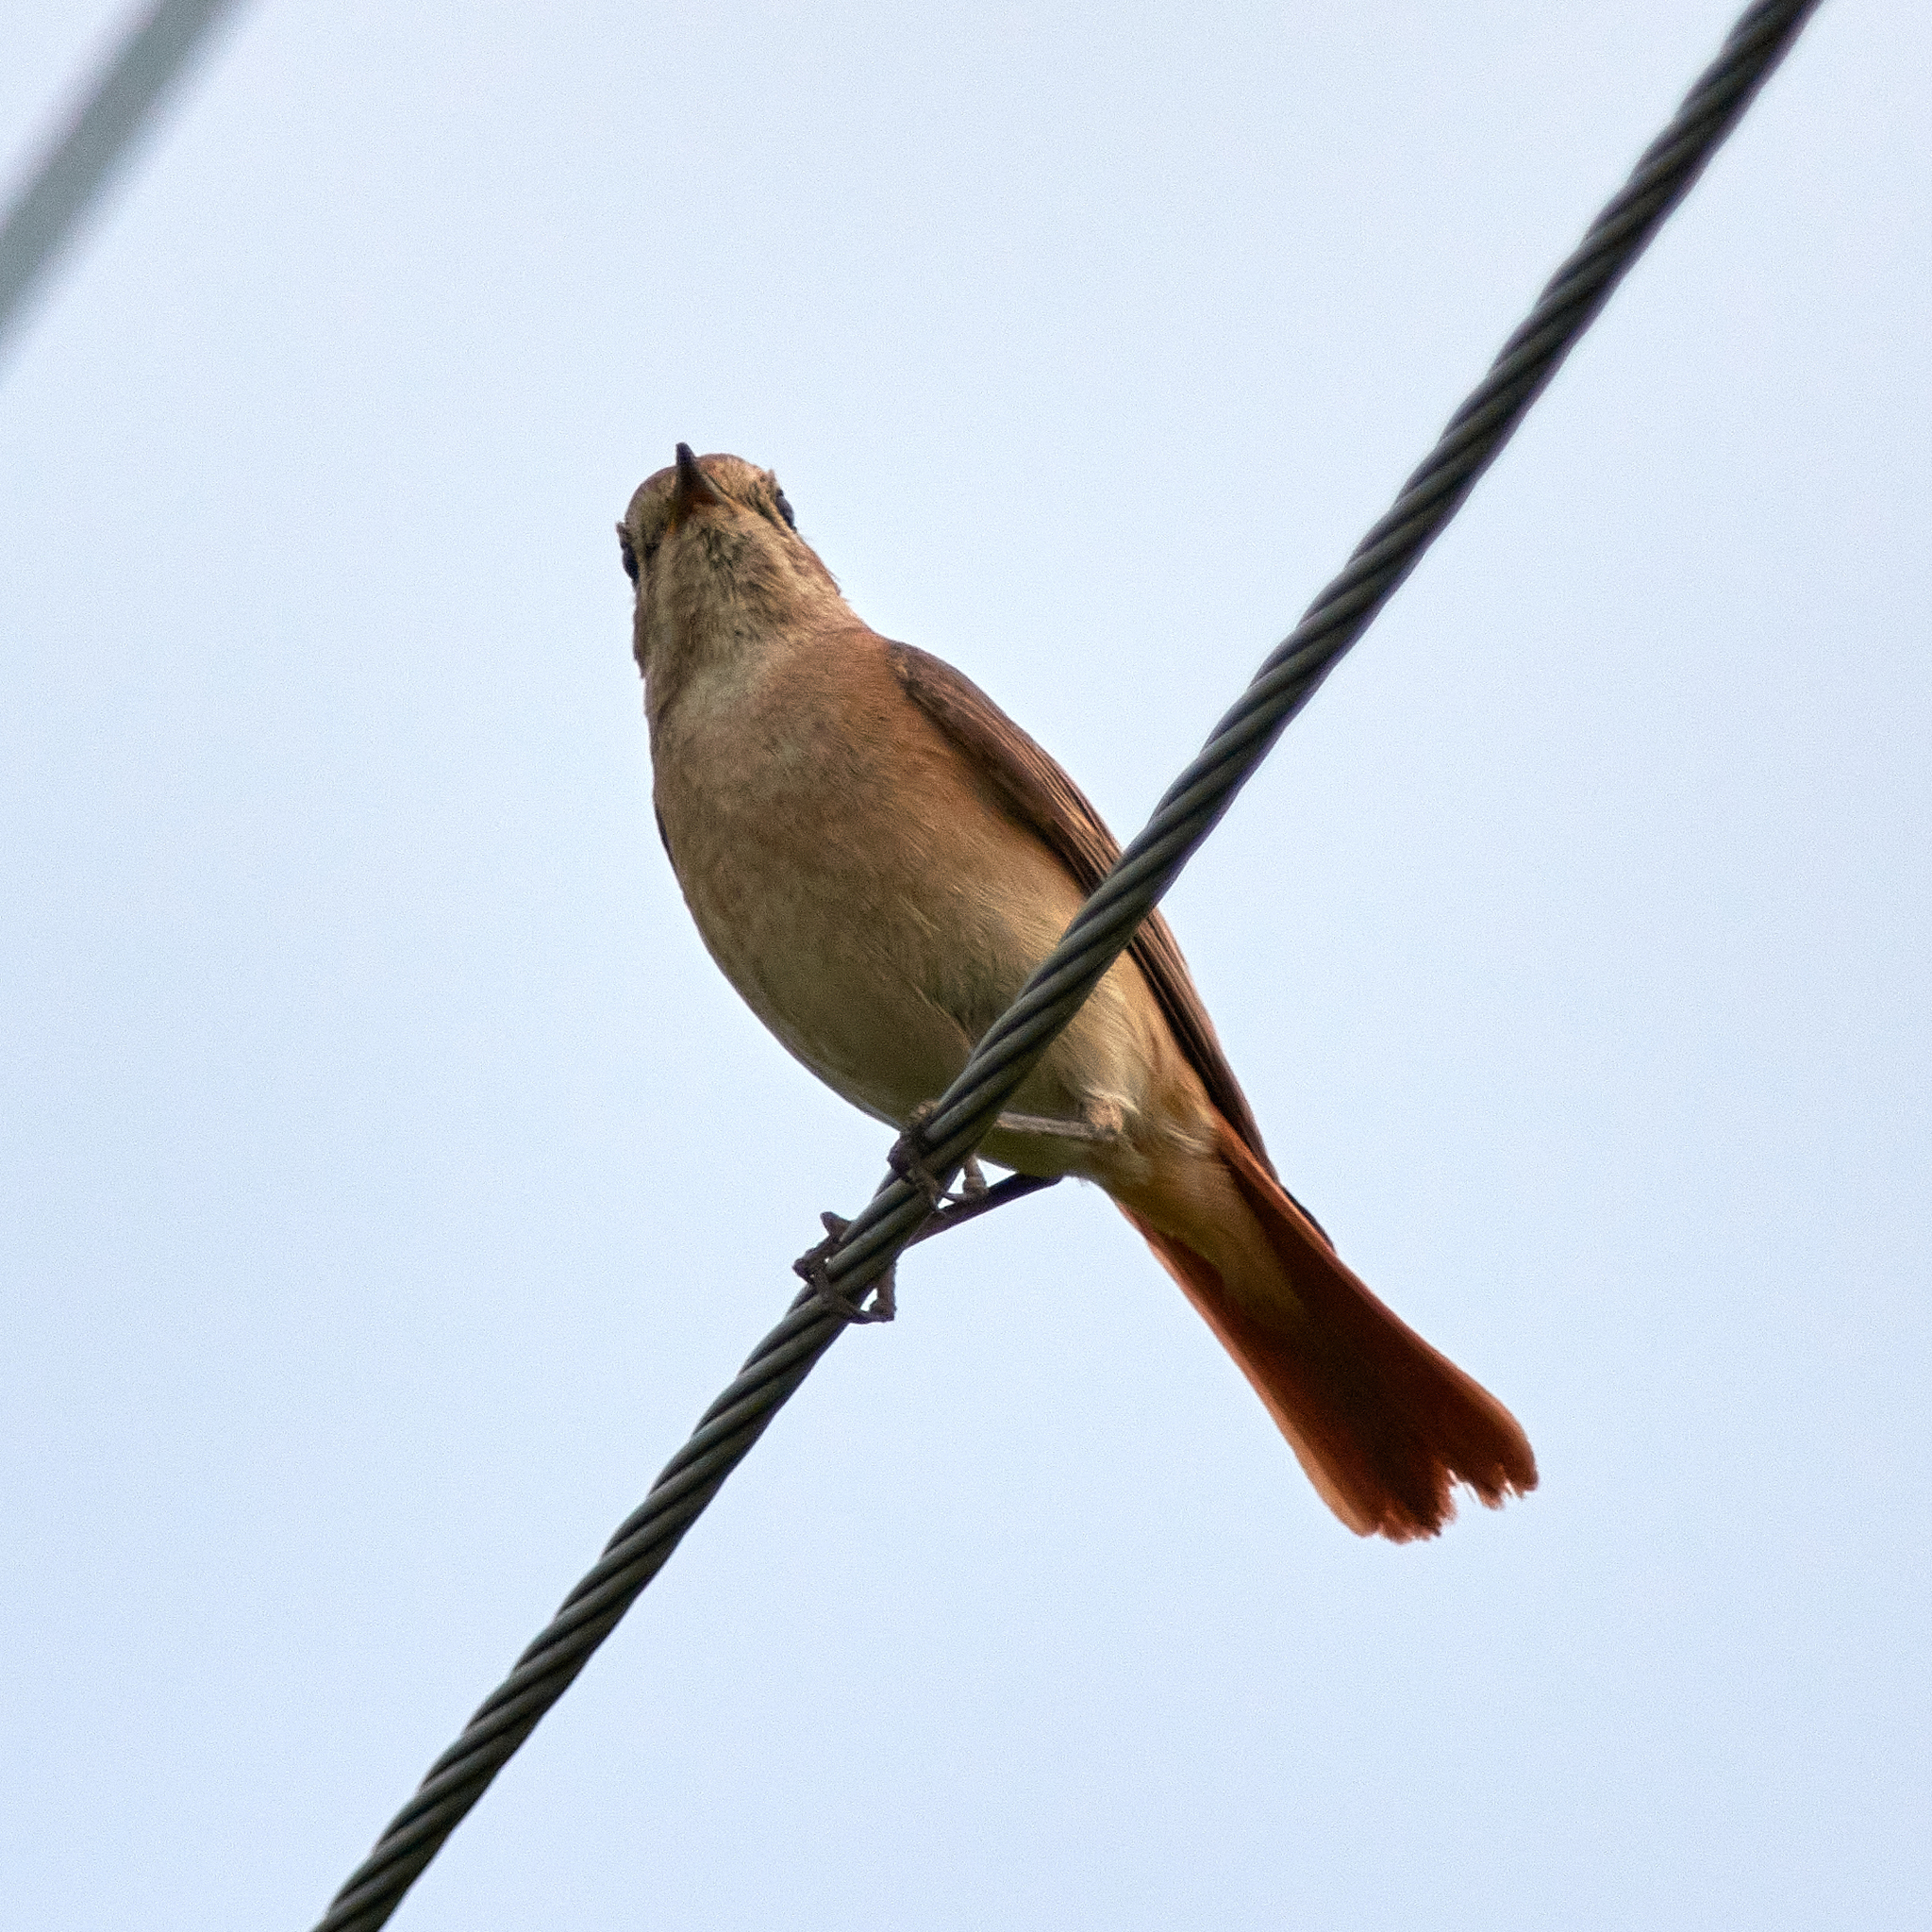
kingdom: Animalia
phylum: Chordata
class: Aves
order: Passeriformes
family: Muscicapidae
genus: Phoenicurus
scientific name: Phoenicurus phoenicurus
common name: Common redstart
